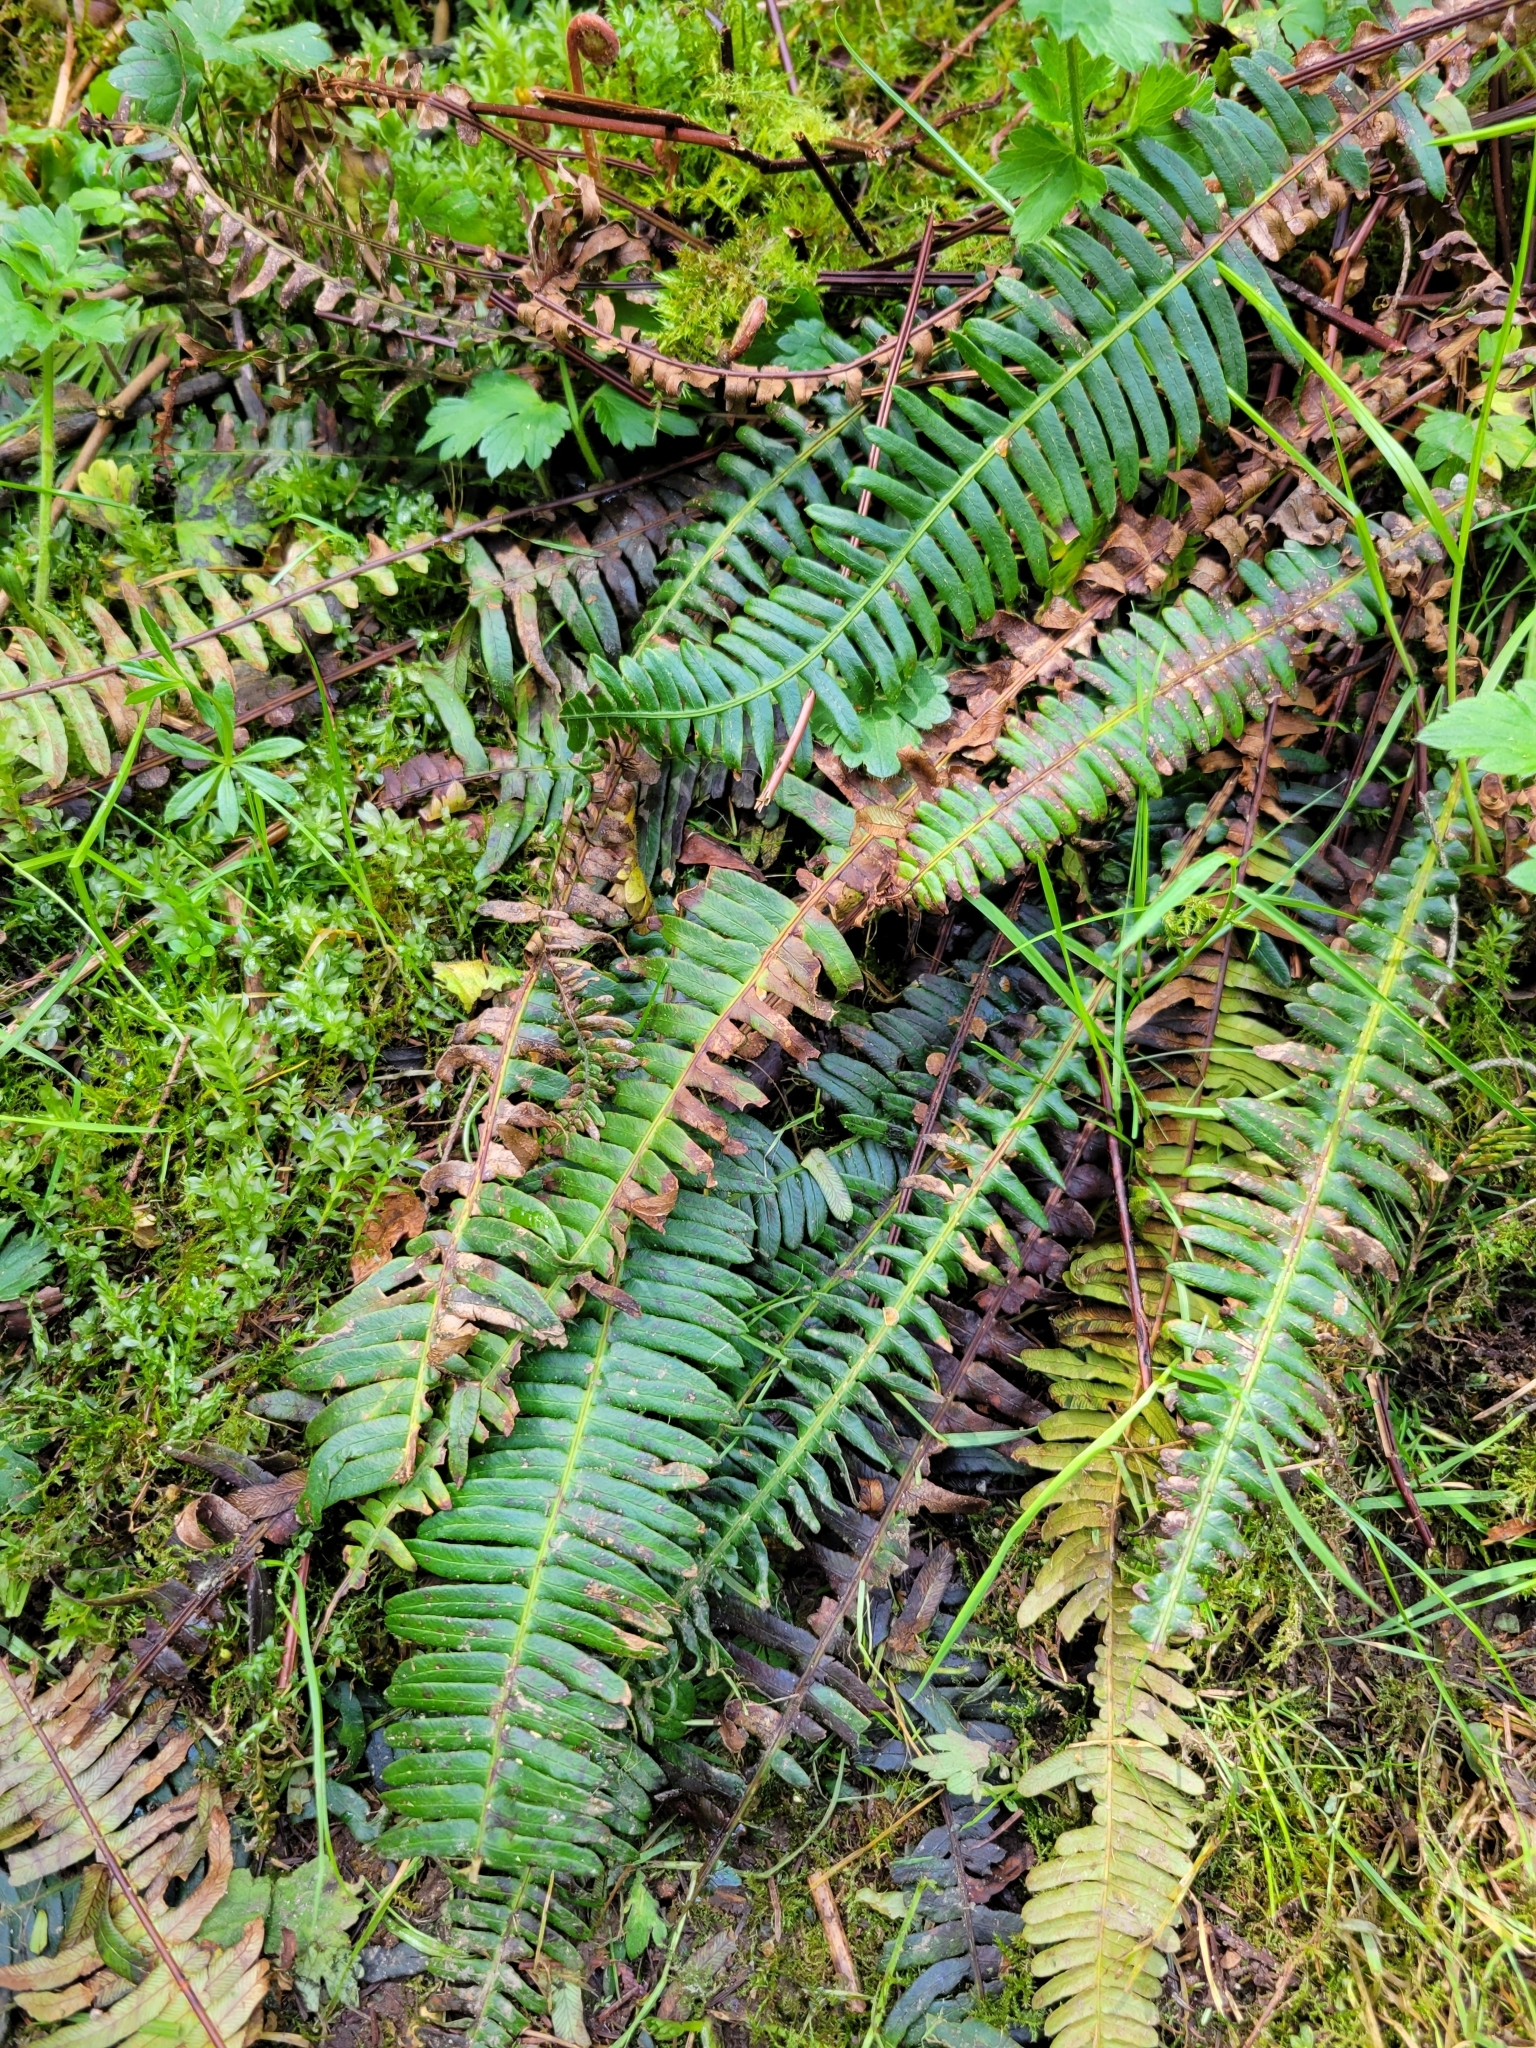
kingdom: Plantae
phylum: Tracheophyta
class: Polypodiopsida
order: Polypodiales
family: Blechnaceae
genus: Struthiopteris
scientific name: Struthiopteris spicant
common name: Deer fern
